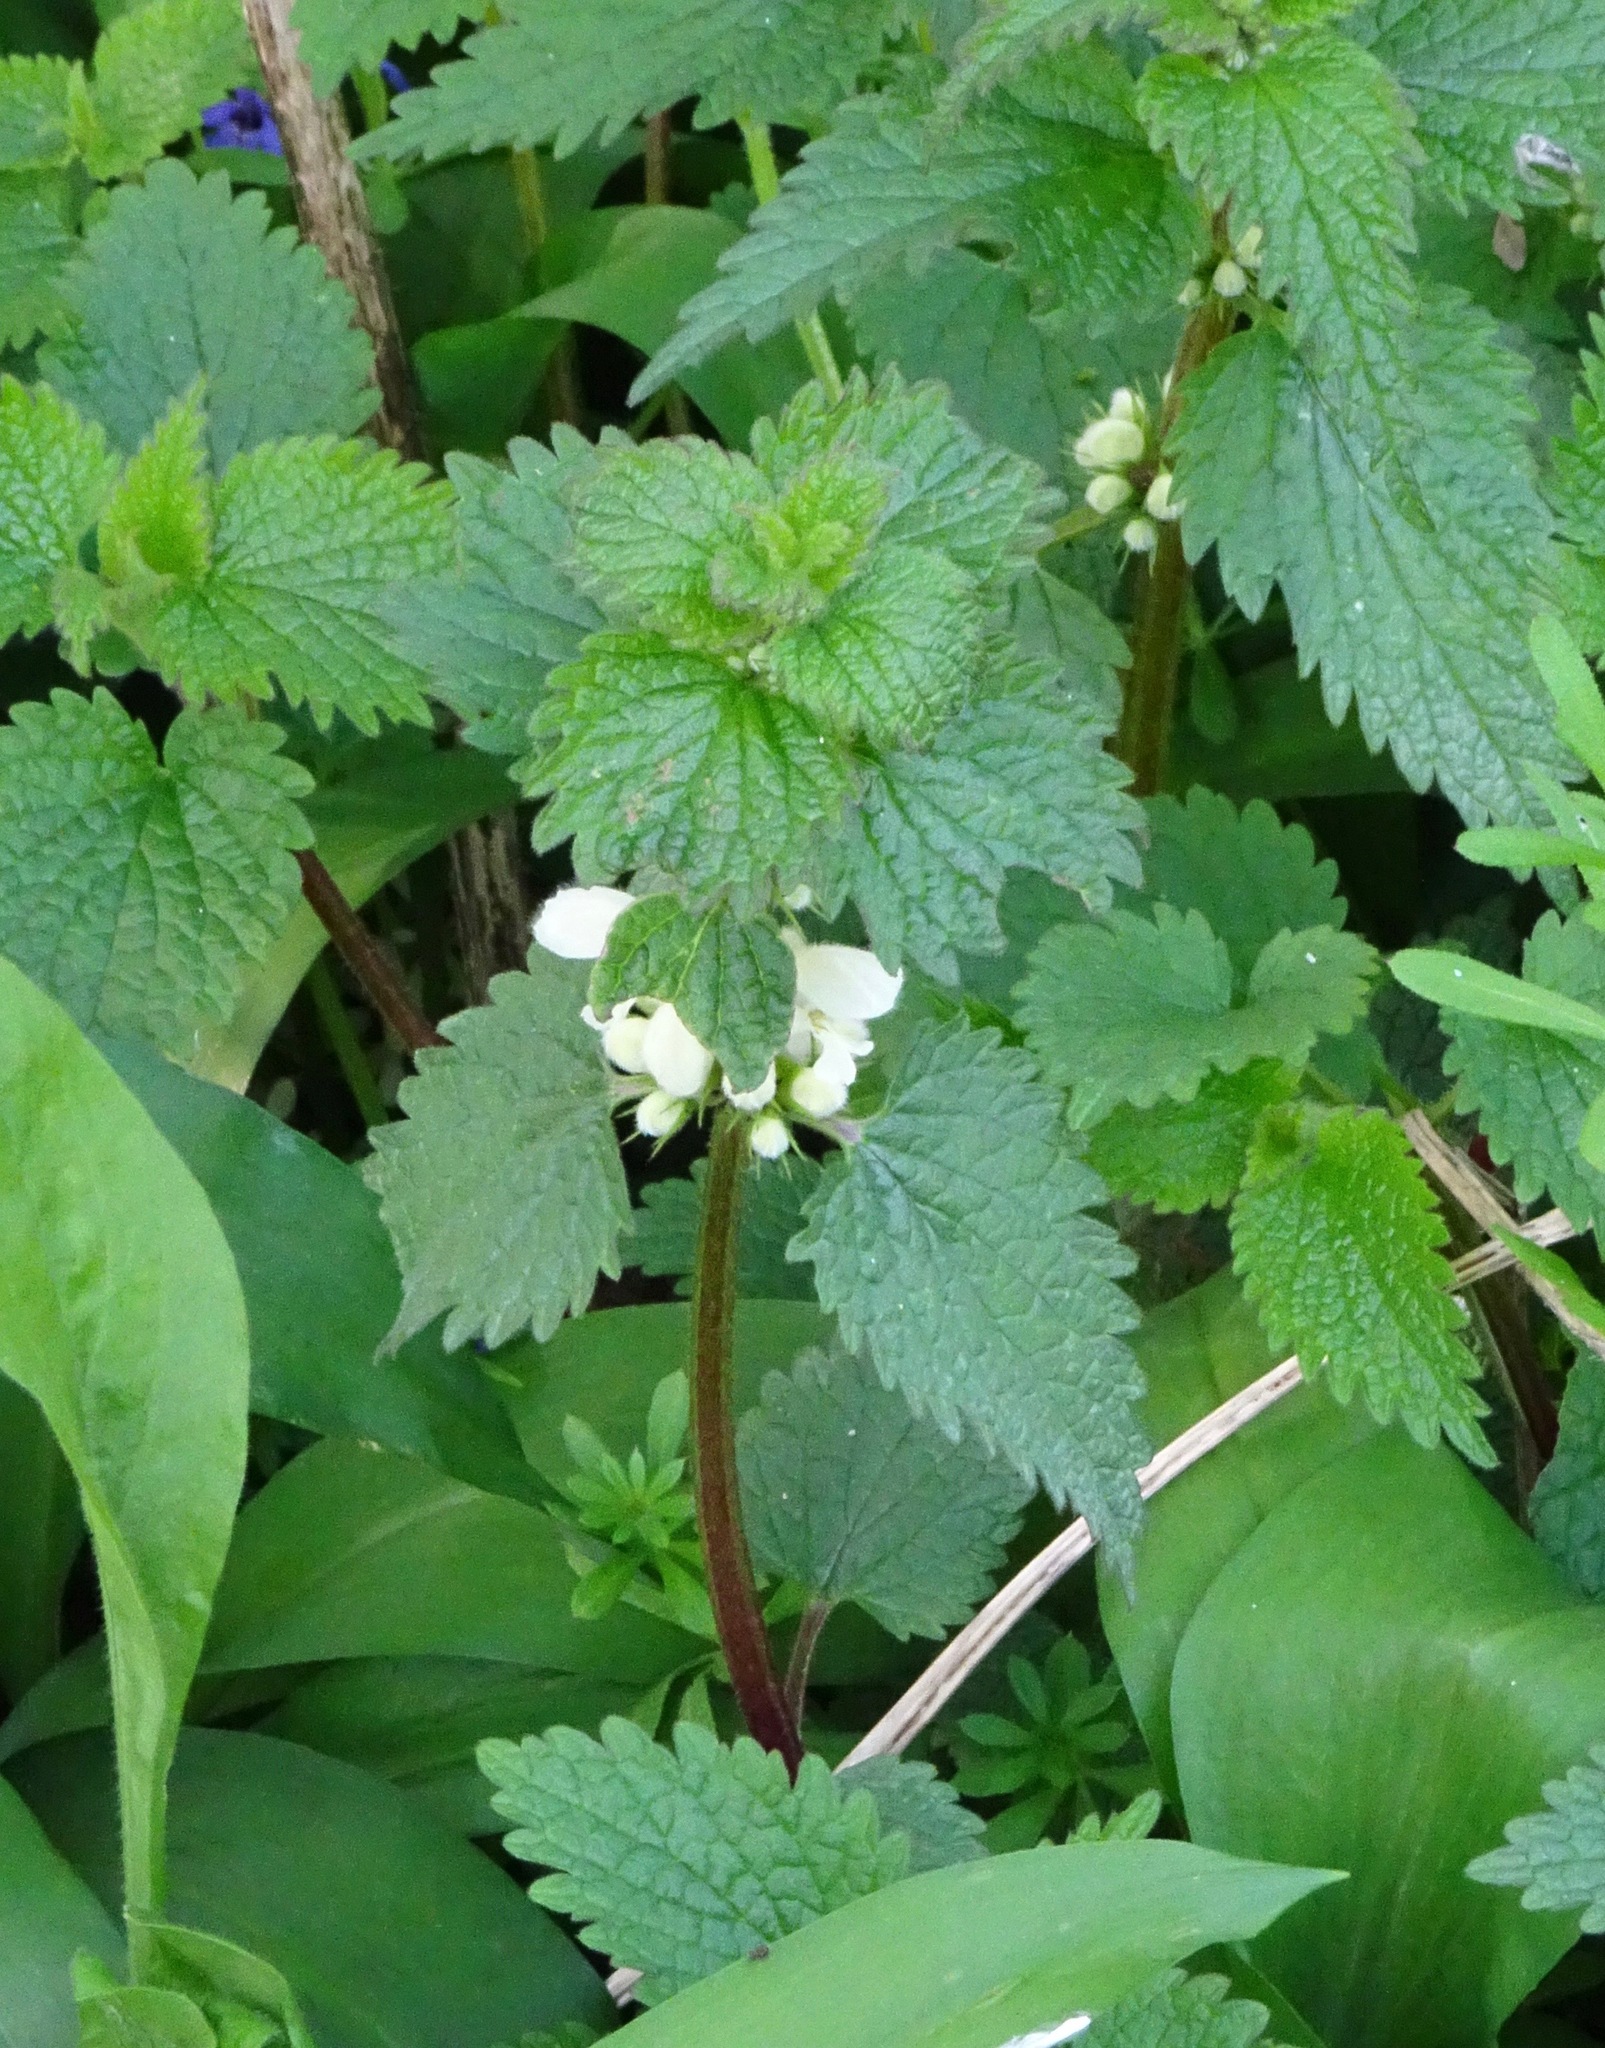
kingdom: Plantae
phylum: Tracheophyta
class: Magnoliopsida
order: Lamiales
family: Lamiaceae
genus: Lamium
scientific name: Lamium album
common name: White dead-nettle
